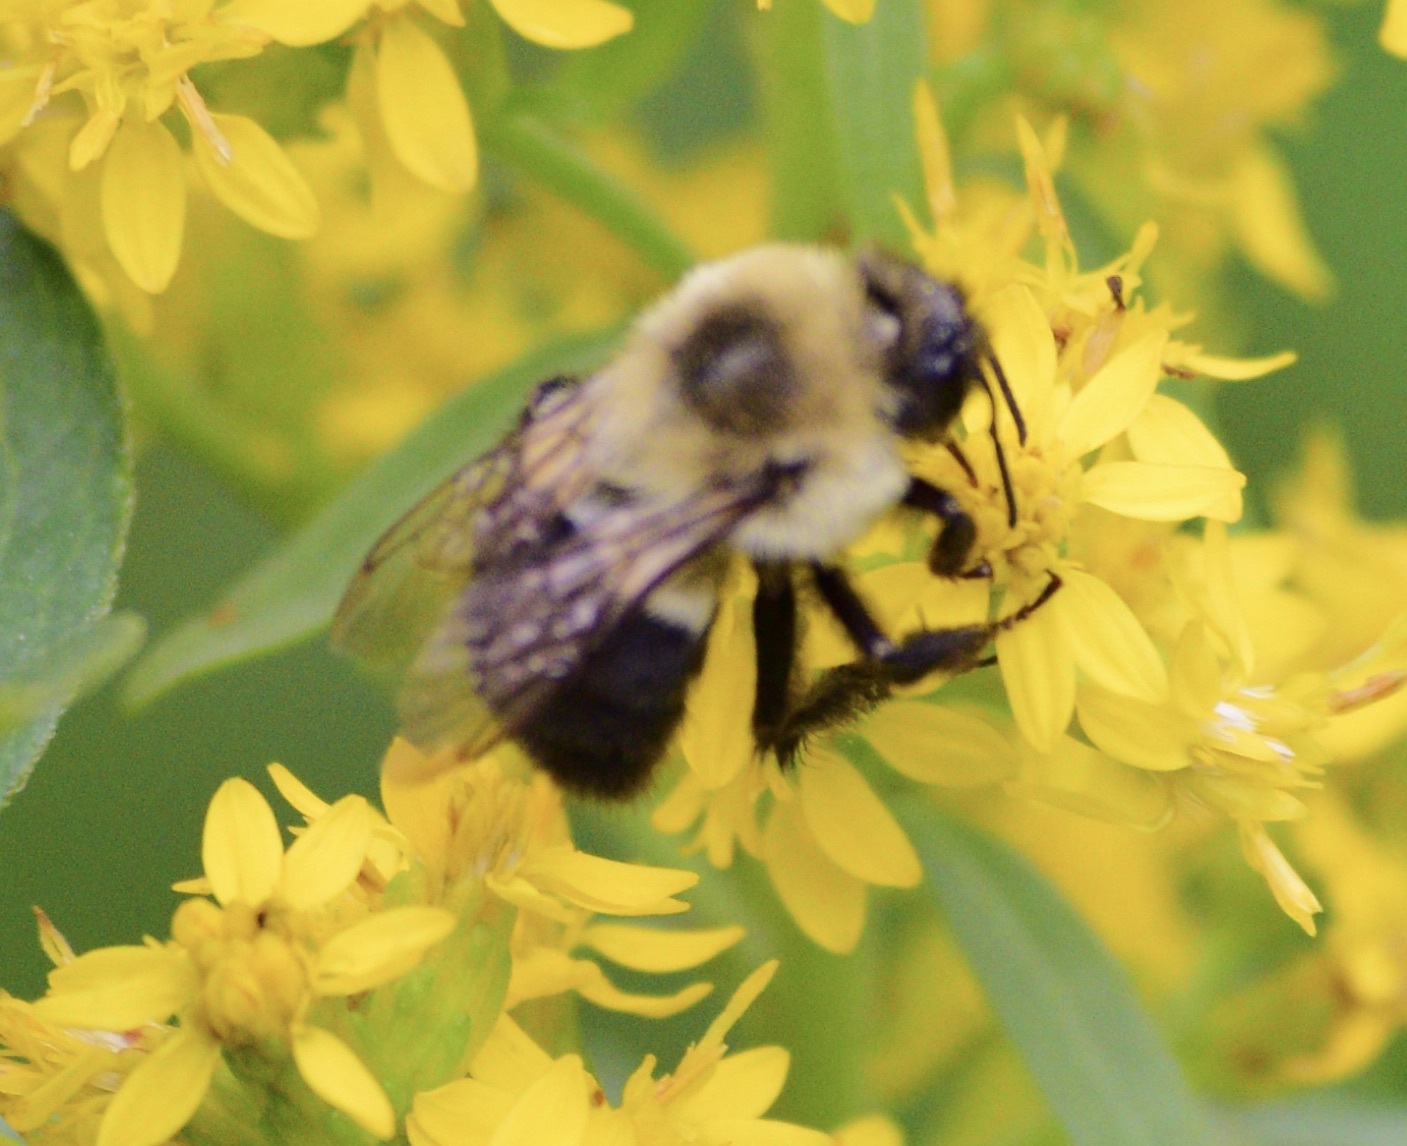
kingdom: Animalia
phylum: Arthropoda
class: Insecta
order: Hymenoptera
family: Apidae
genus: Bombus
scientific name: Bombus impatiens
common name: Common eastern bumble bee
